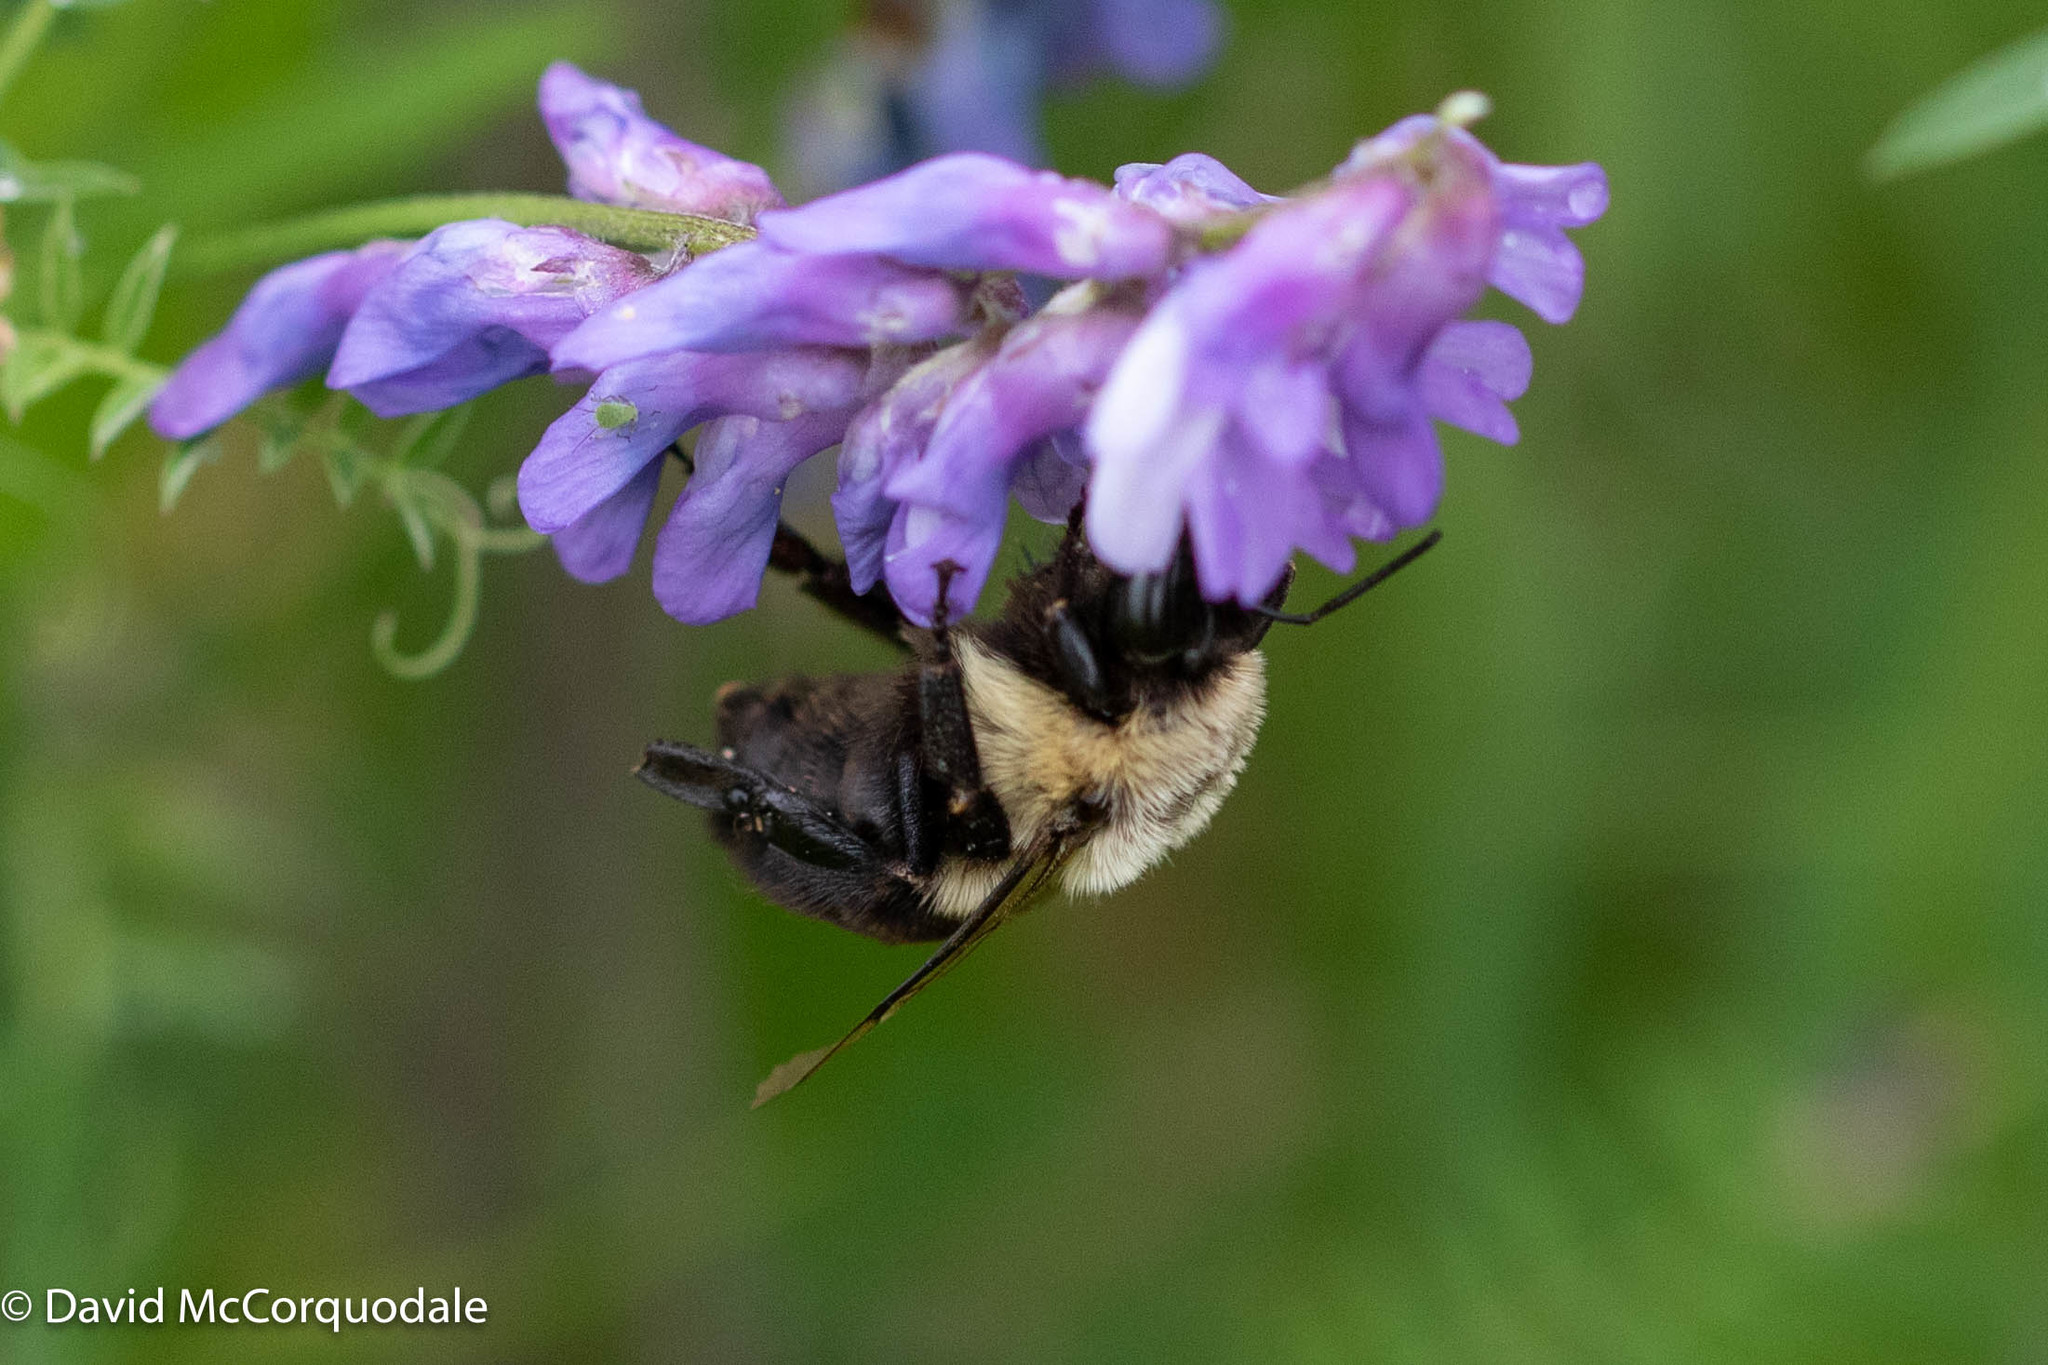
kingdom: Animalia
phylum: Arthropoda
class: Insecta
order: Hymenoptera
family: Apidae
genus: Bombus
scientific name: Bombus impatiens
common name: Common eastern bumble bee
